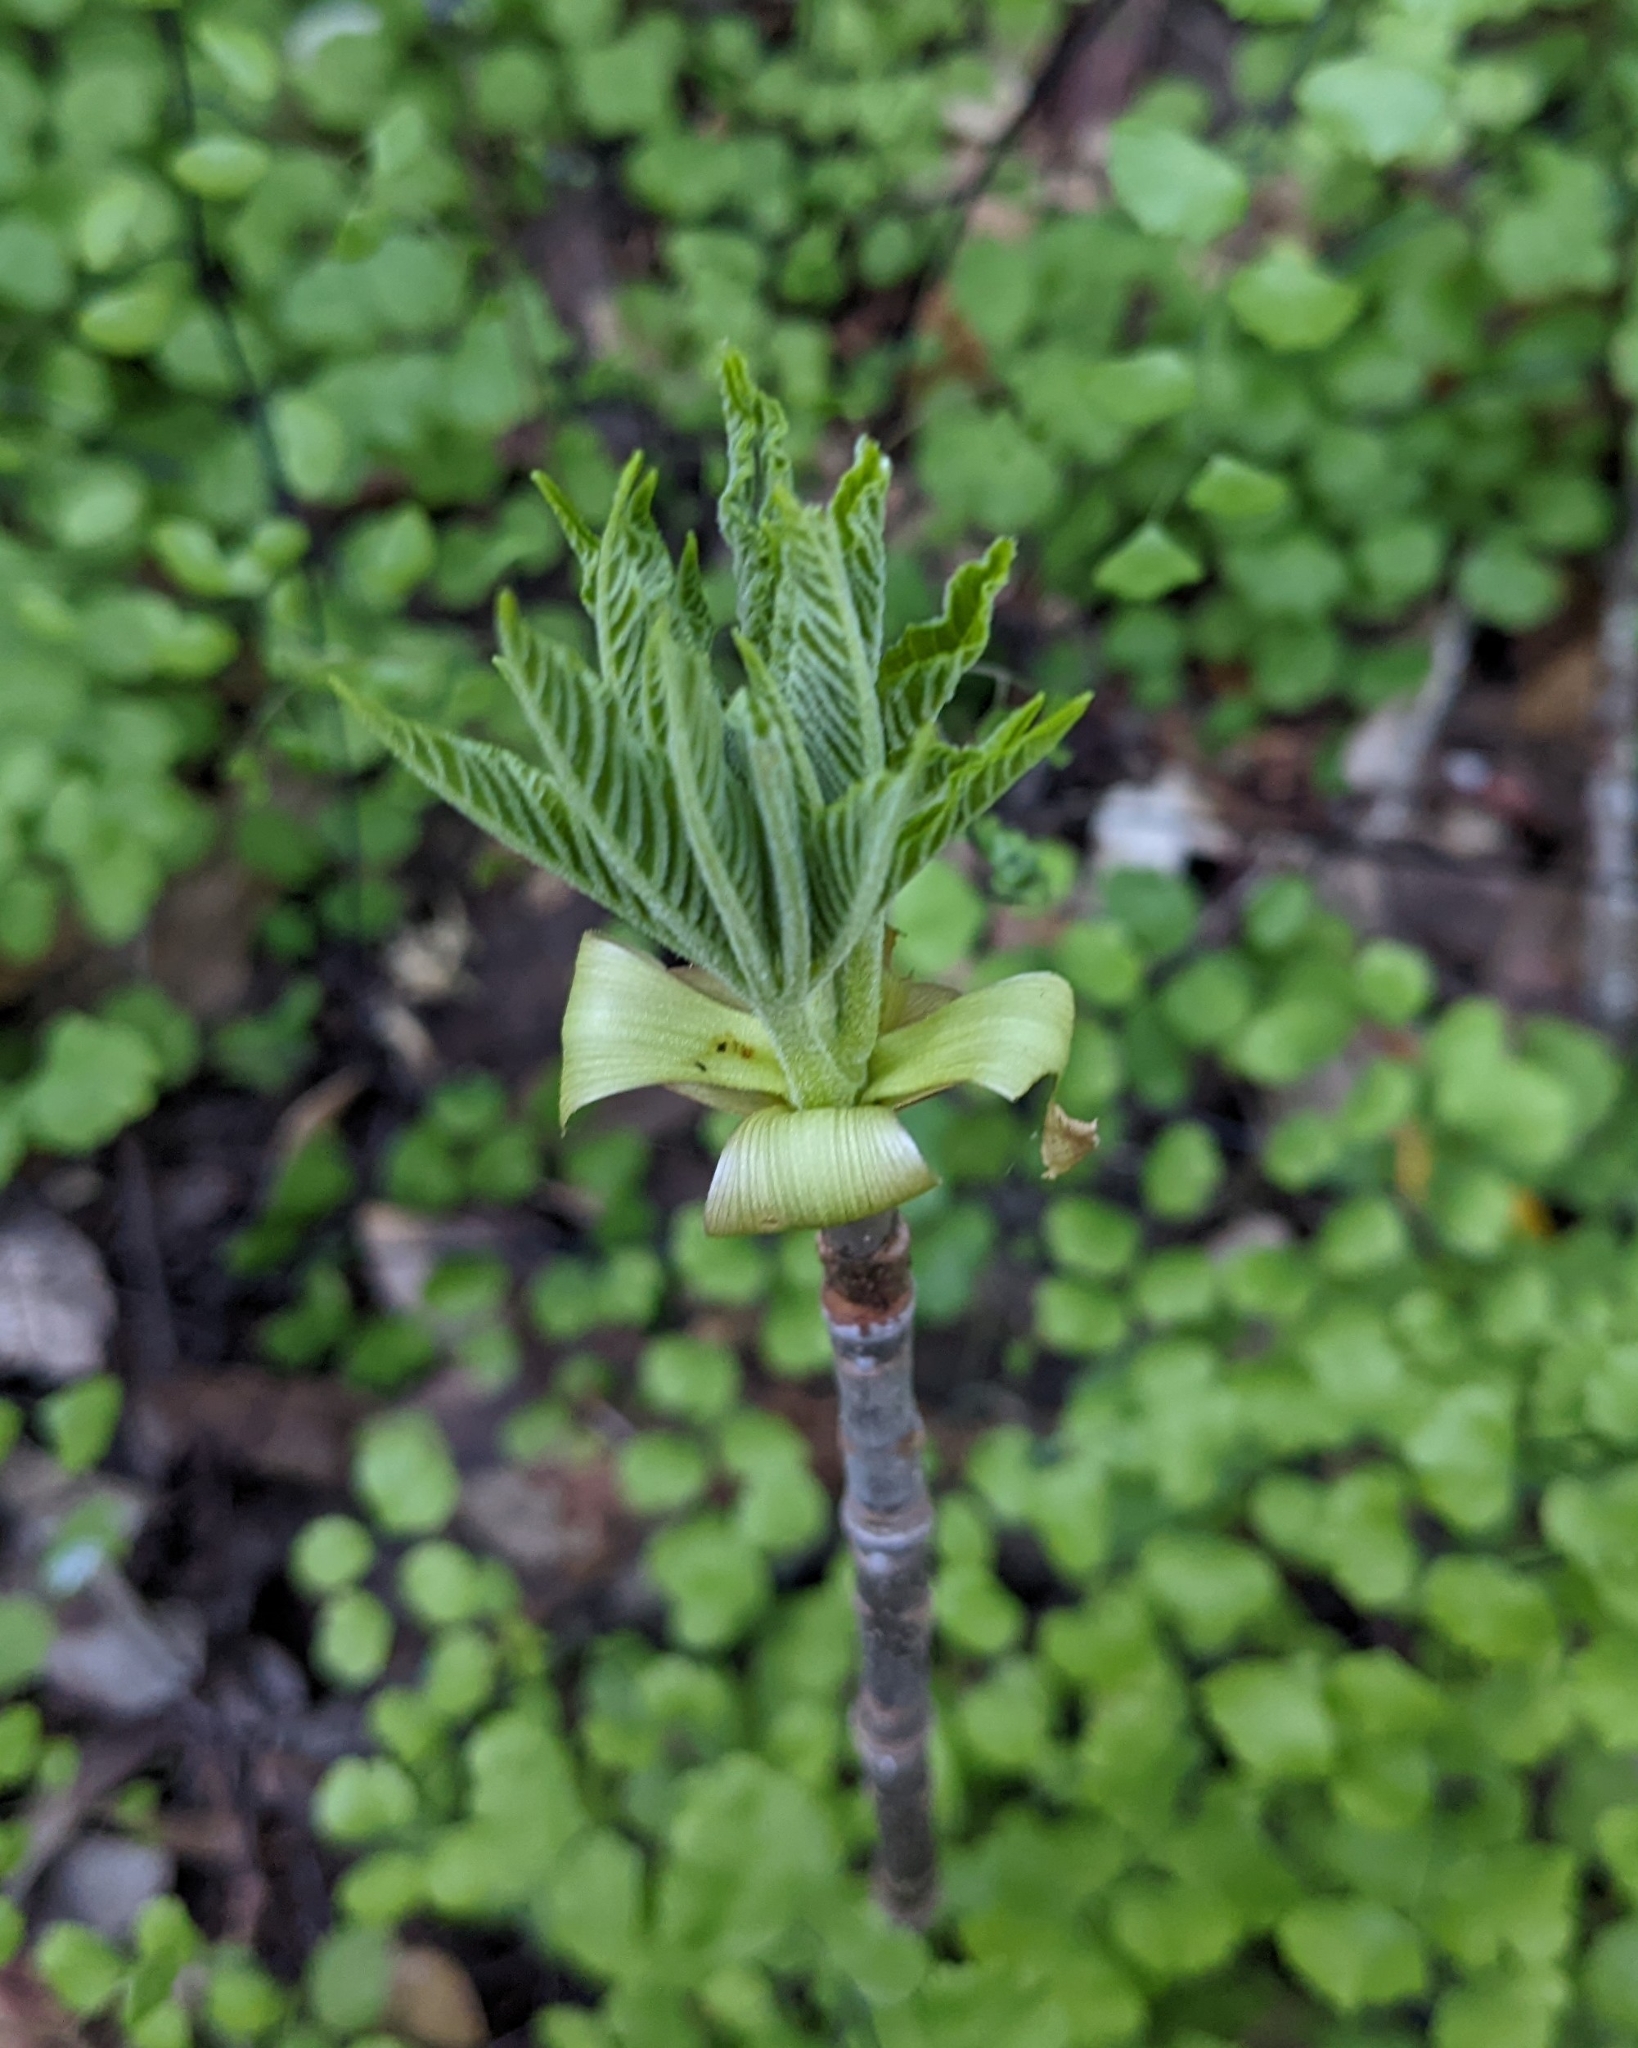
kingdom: Plantae
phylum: Tracheophyta
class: Magnoliopsida
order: Sapindales
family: Sapindaceae
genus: Aesculus
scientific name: Aesculus californica
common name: California buckeye
